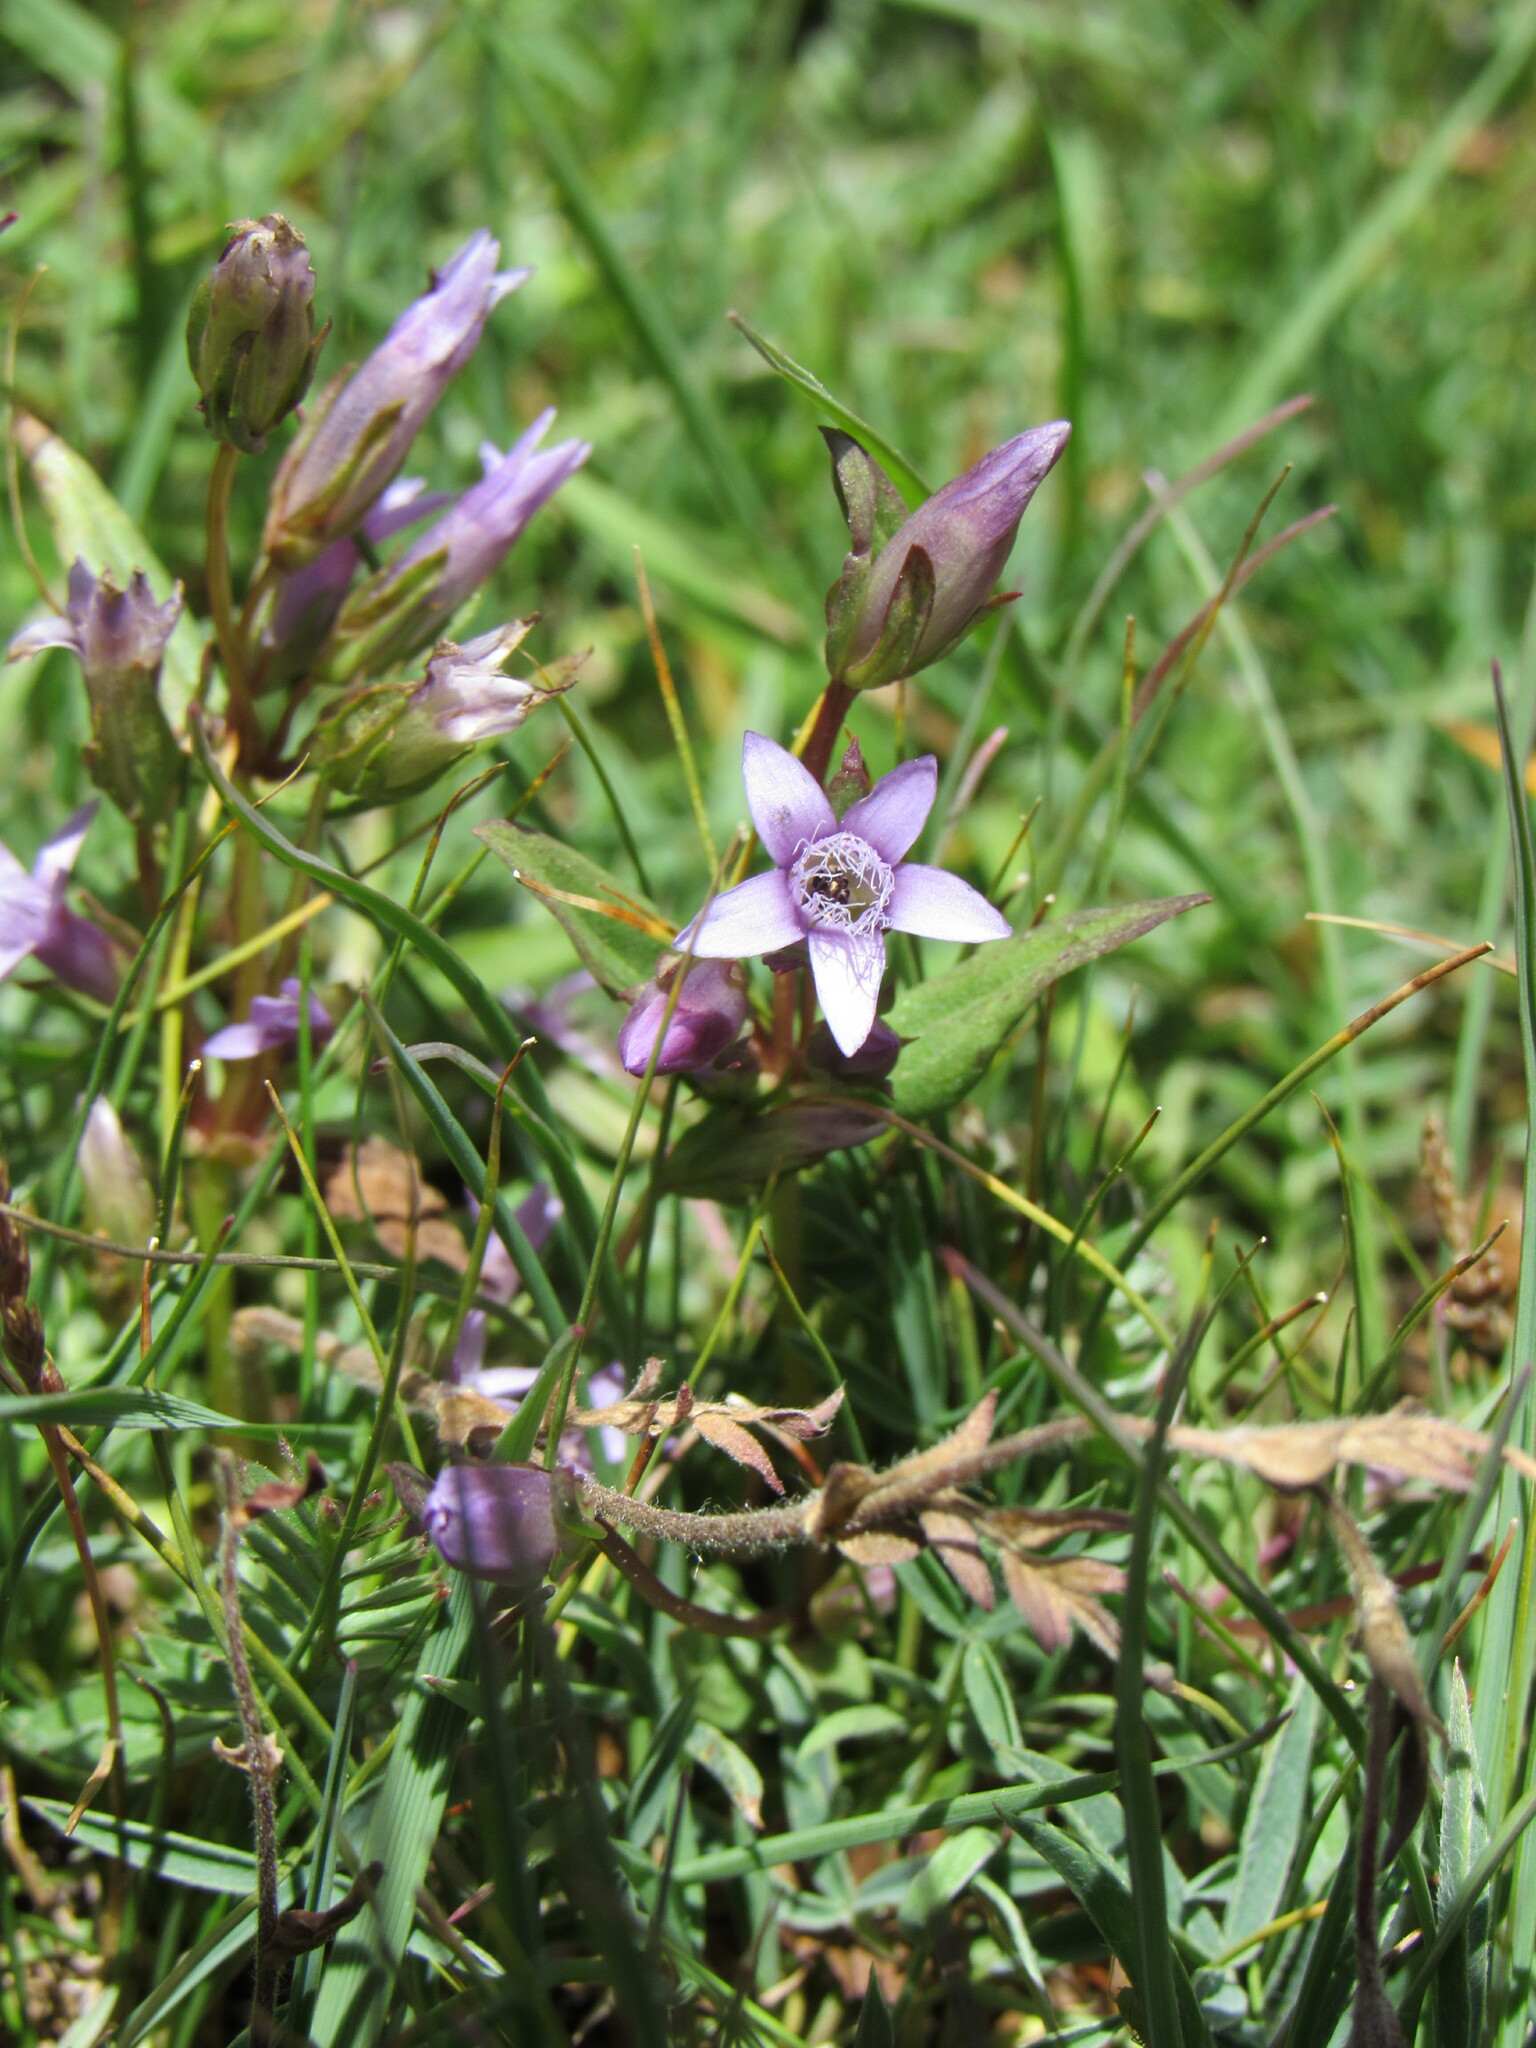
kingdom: Plantae
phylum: Tracheophyta
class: Magnoliopsida
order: Gentianales
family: Gentianaceae
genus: Gentianella
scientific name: Gentianella amarella
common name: Autumn gentian
